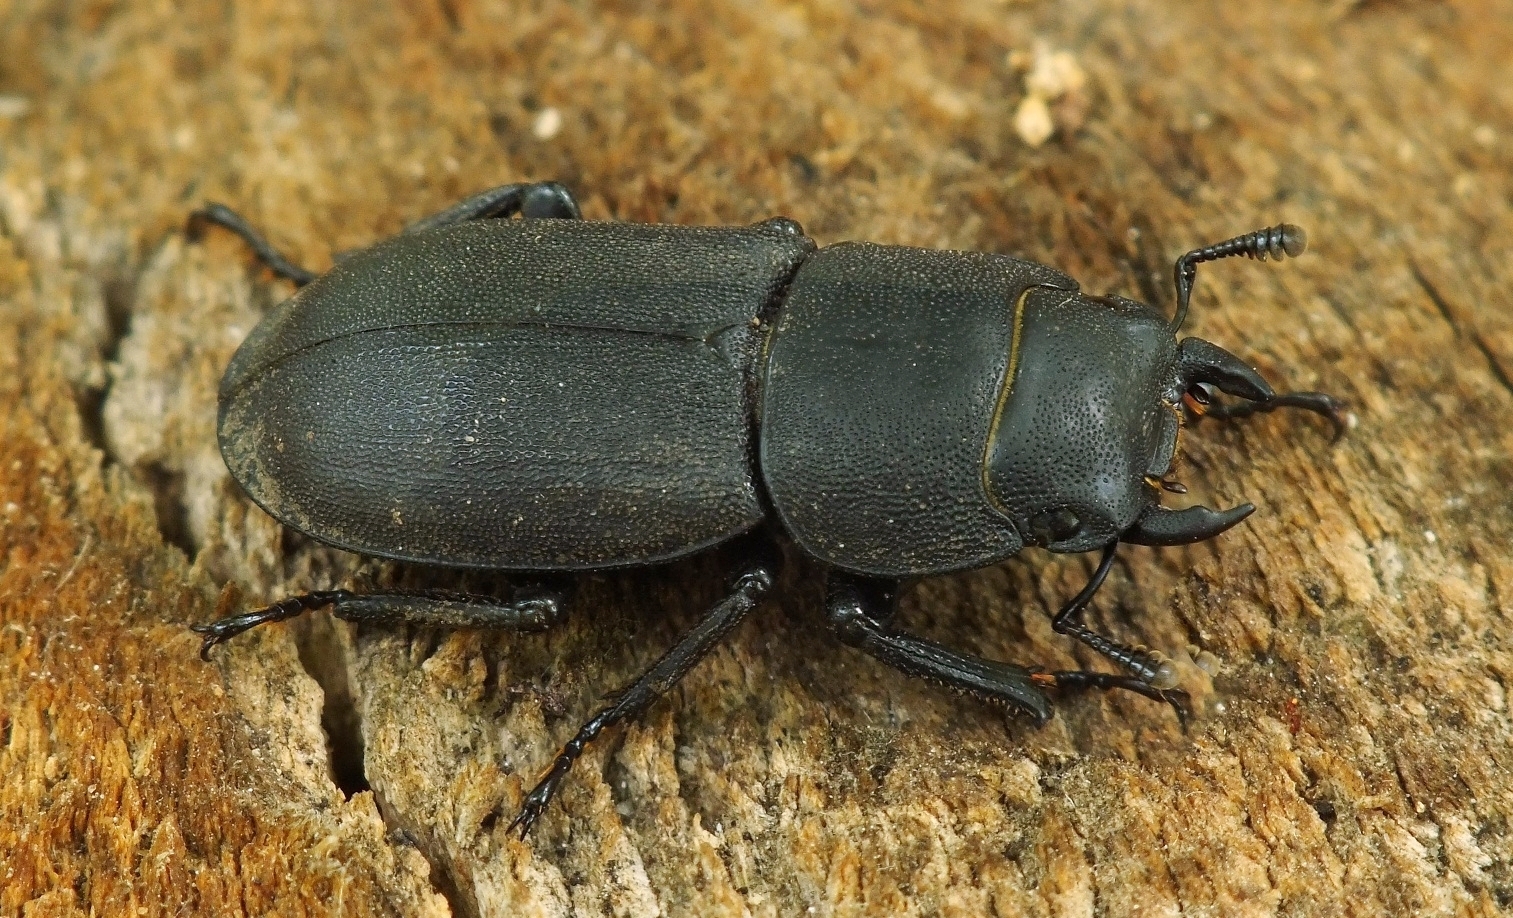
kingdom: Animalia
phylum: Arthropoda
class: Insecta
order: Coleoptera
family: Lucanidae
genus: Dorcus
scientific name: Dorcus parallelipipedus
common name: Lesser stag beetle
